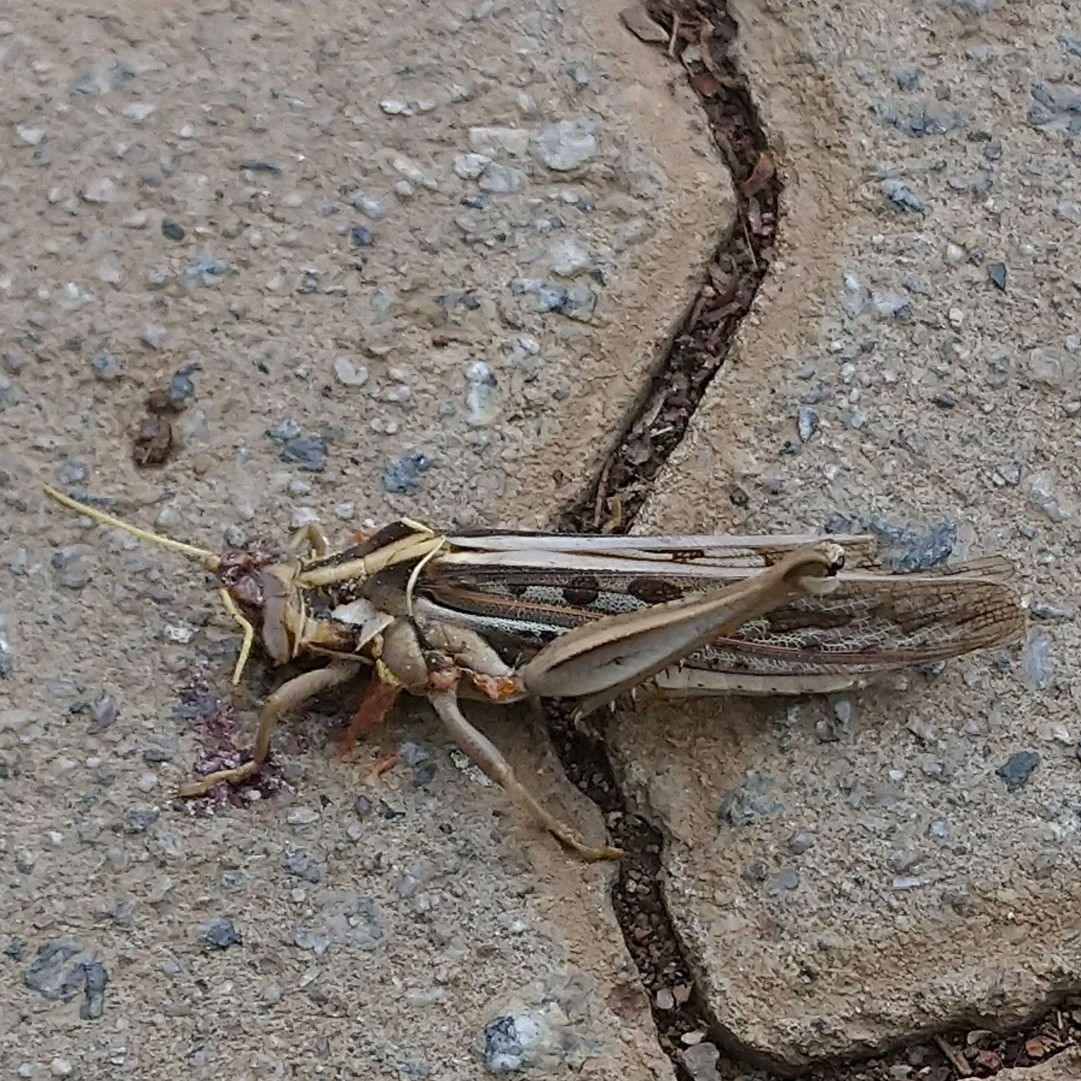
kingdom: Animalia
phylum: Arthropoda
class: Insecta
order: Orthoptera
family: Acrididae
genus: Cyrtacanthacris
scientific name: Cyrtacanthacris tatarica
